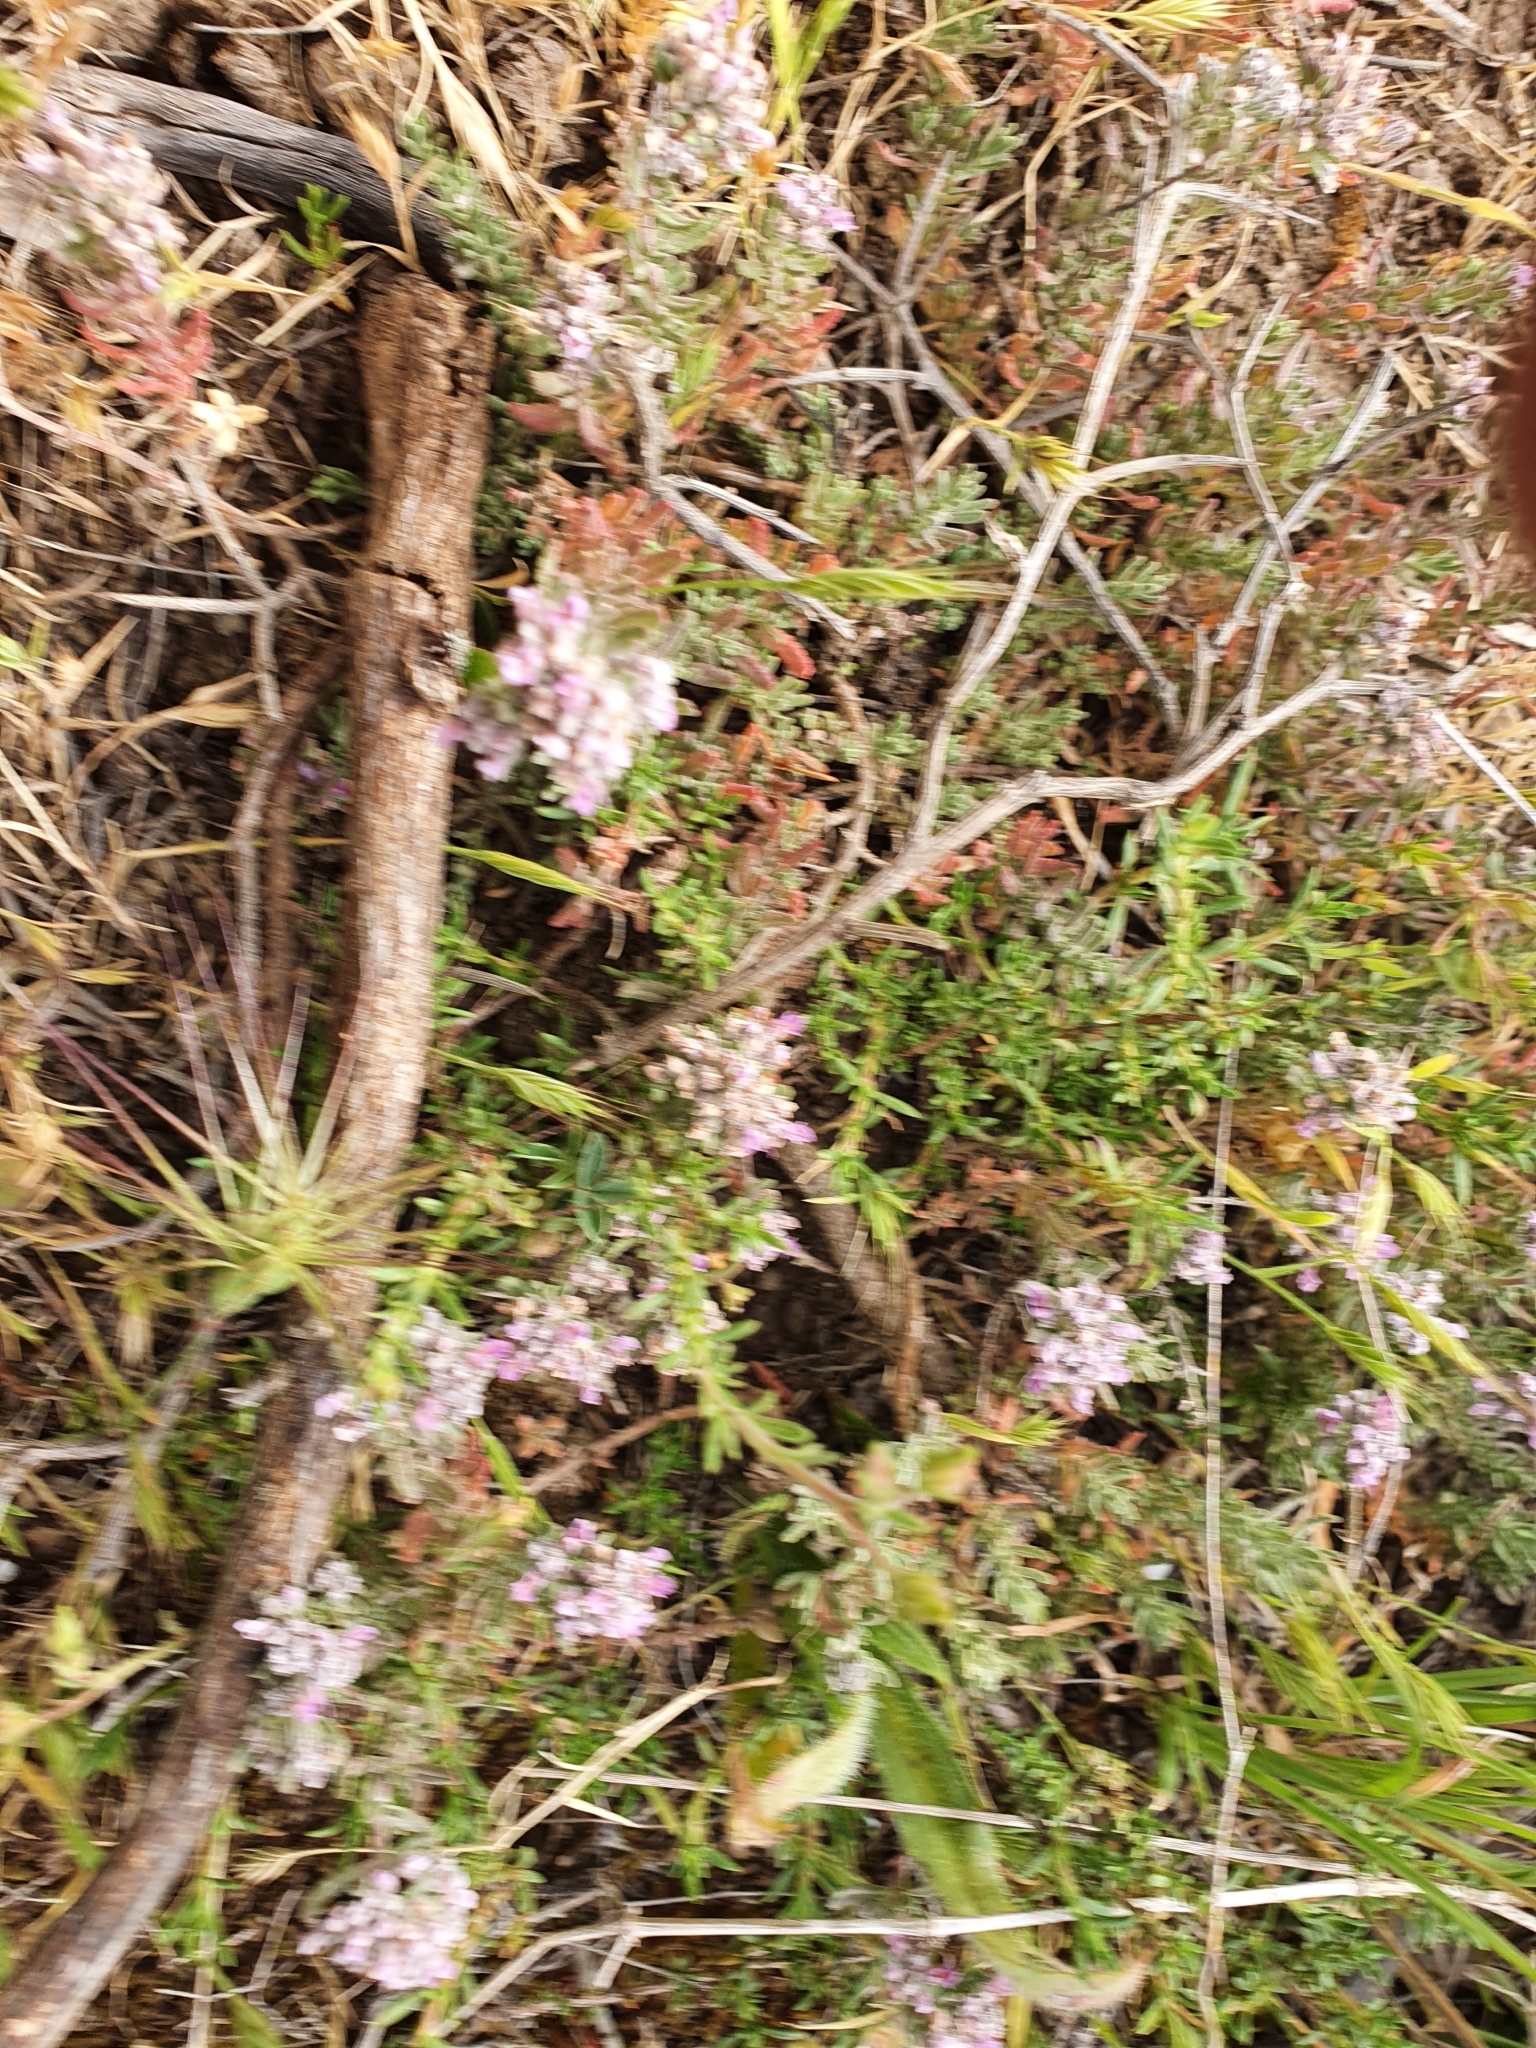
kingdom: Plantae
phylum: Tracheophyta
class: Magnoliopsida
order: Lamiales
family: Lamiaceae
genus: Teucrium
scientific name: Teucrium capitatum
